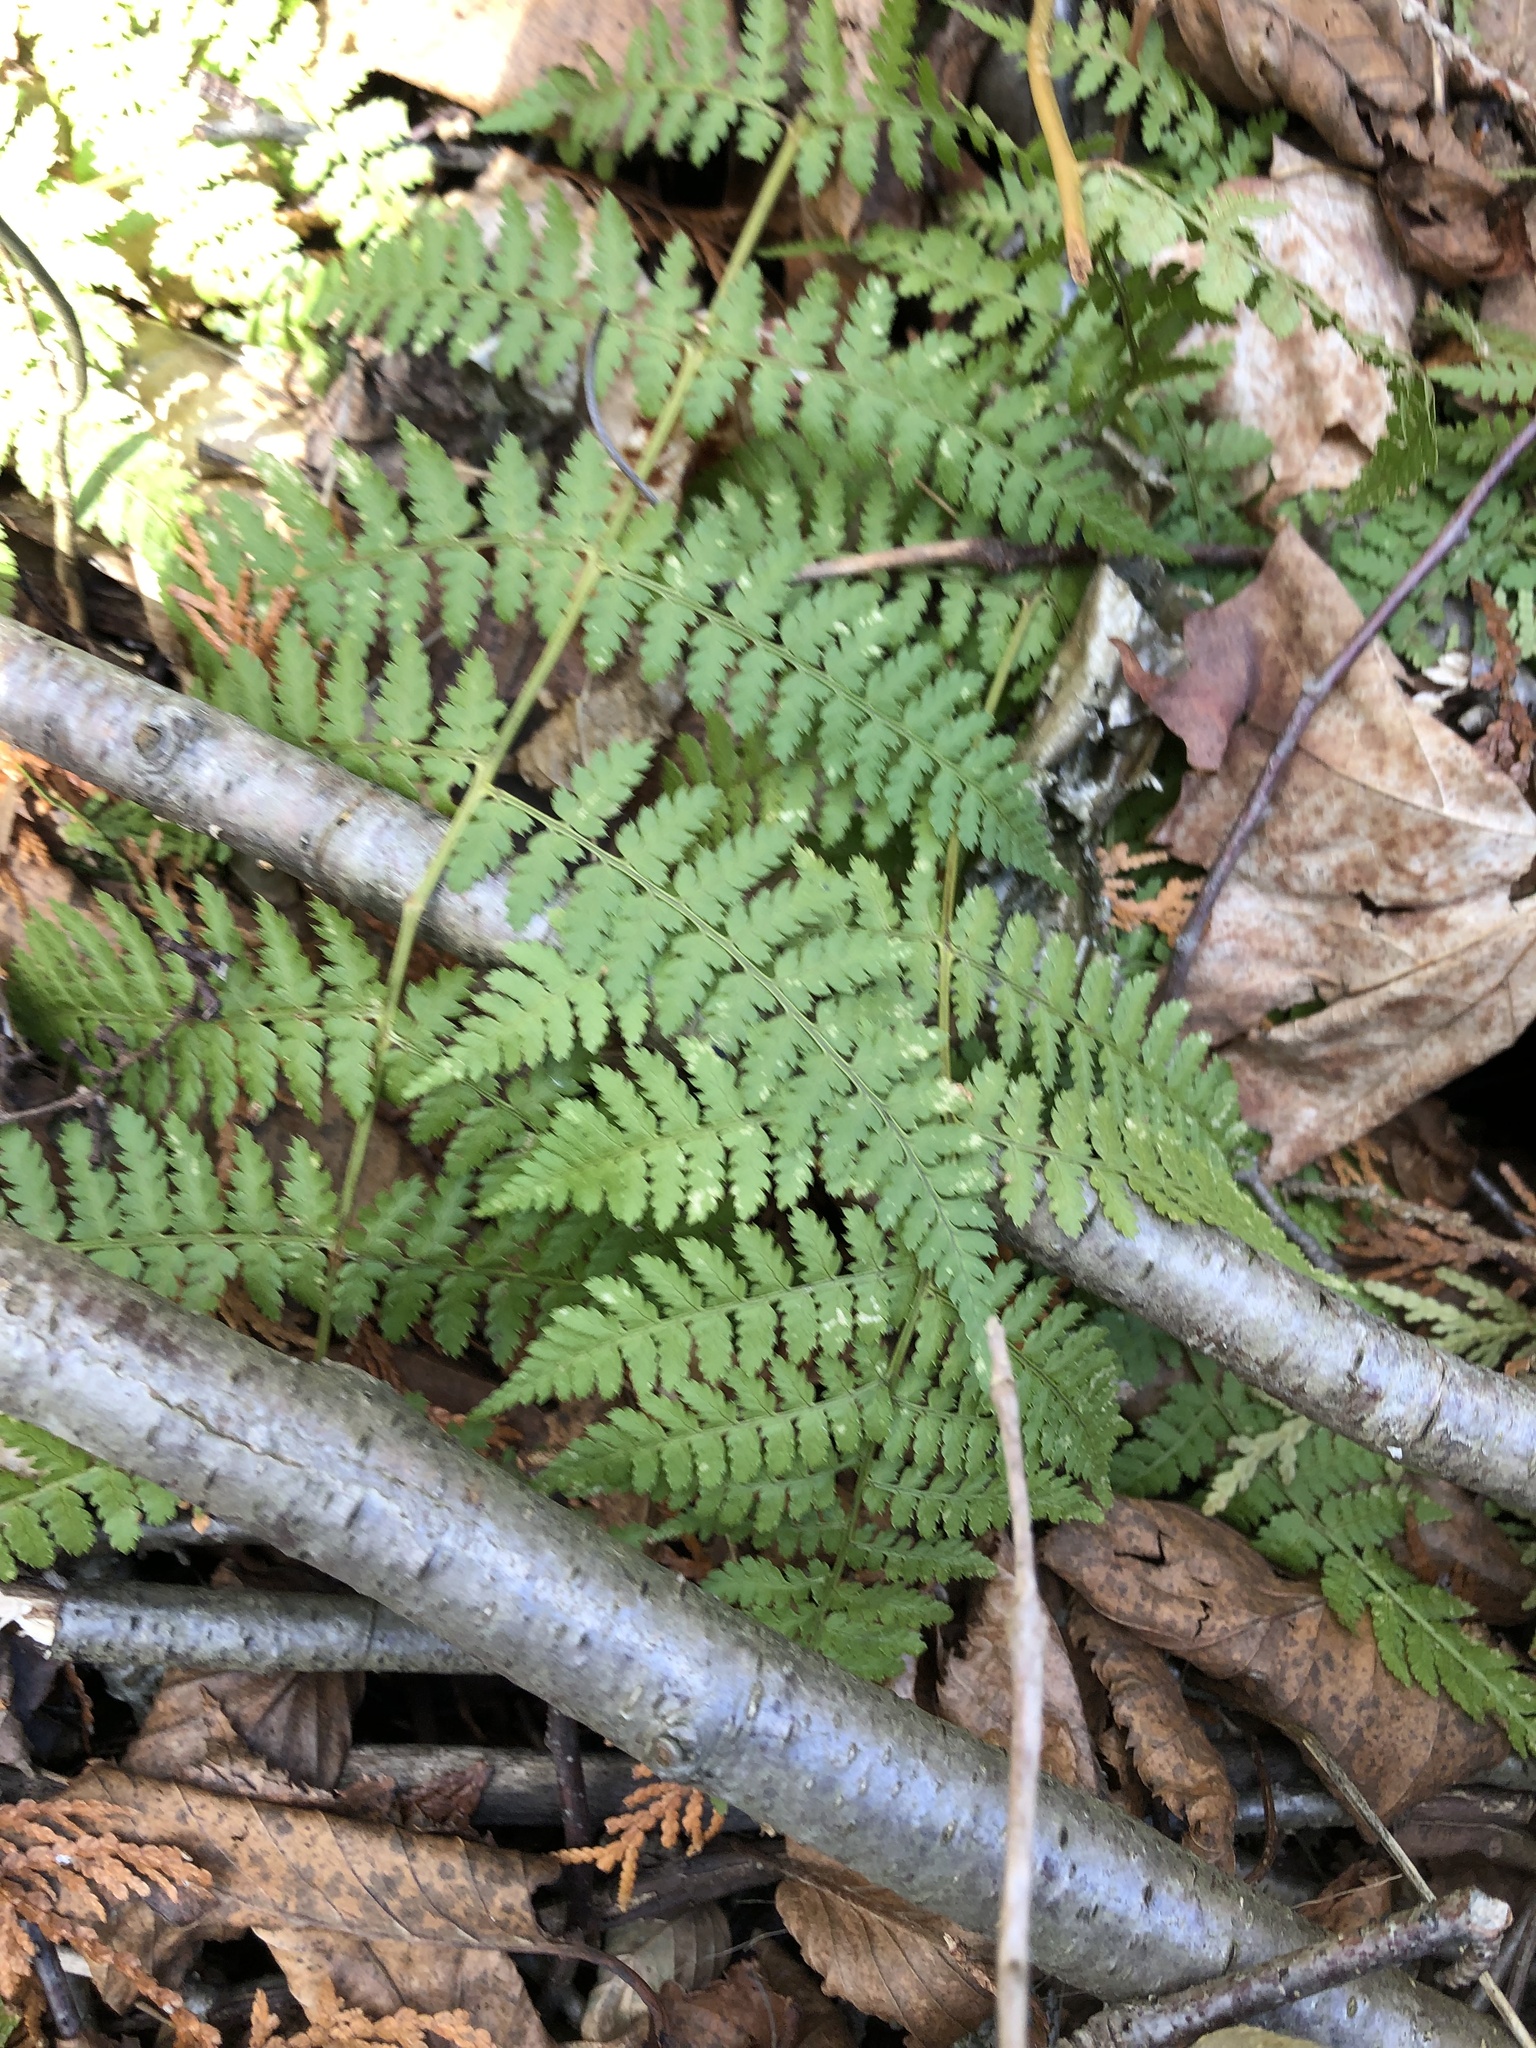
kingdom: Plantae
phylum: Tracheophyta
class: Polypodiopsida
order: Polypodiales
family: Dryopteridaceae
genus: Dryopteris
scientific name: Dryopteris intermedia
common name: Evergreen wood fern
